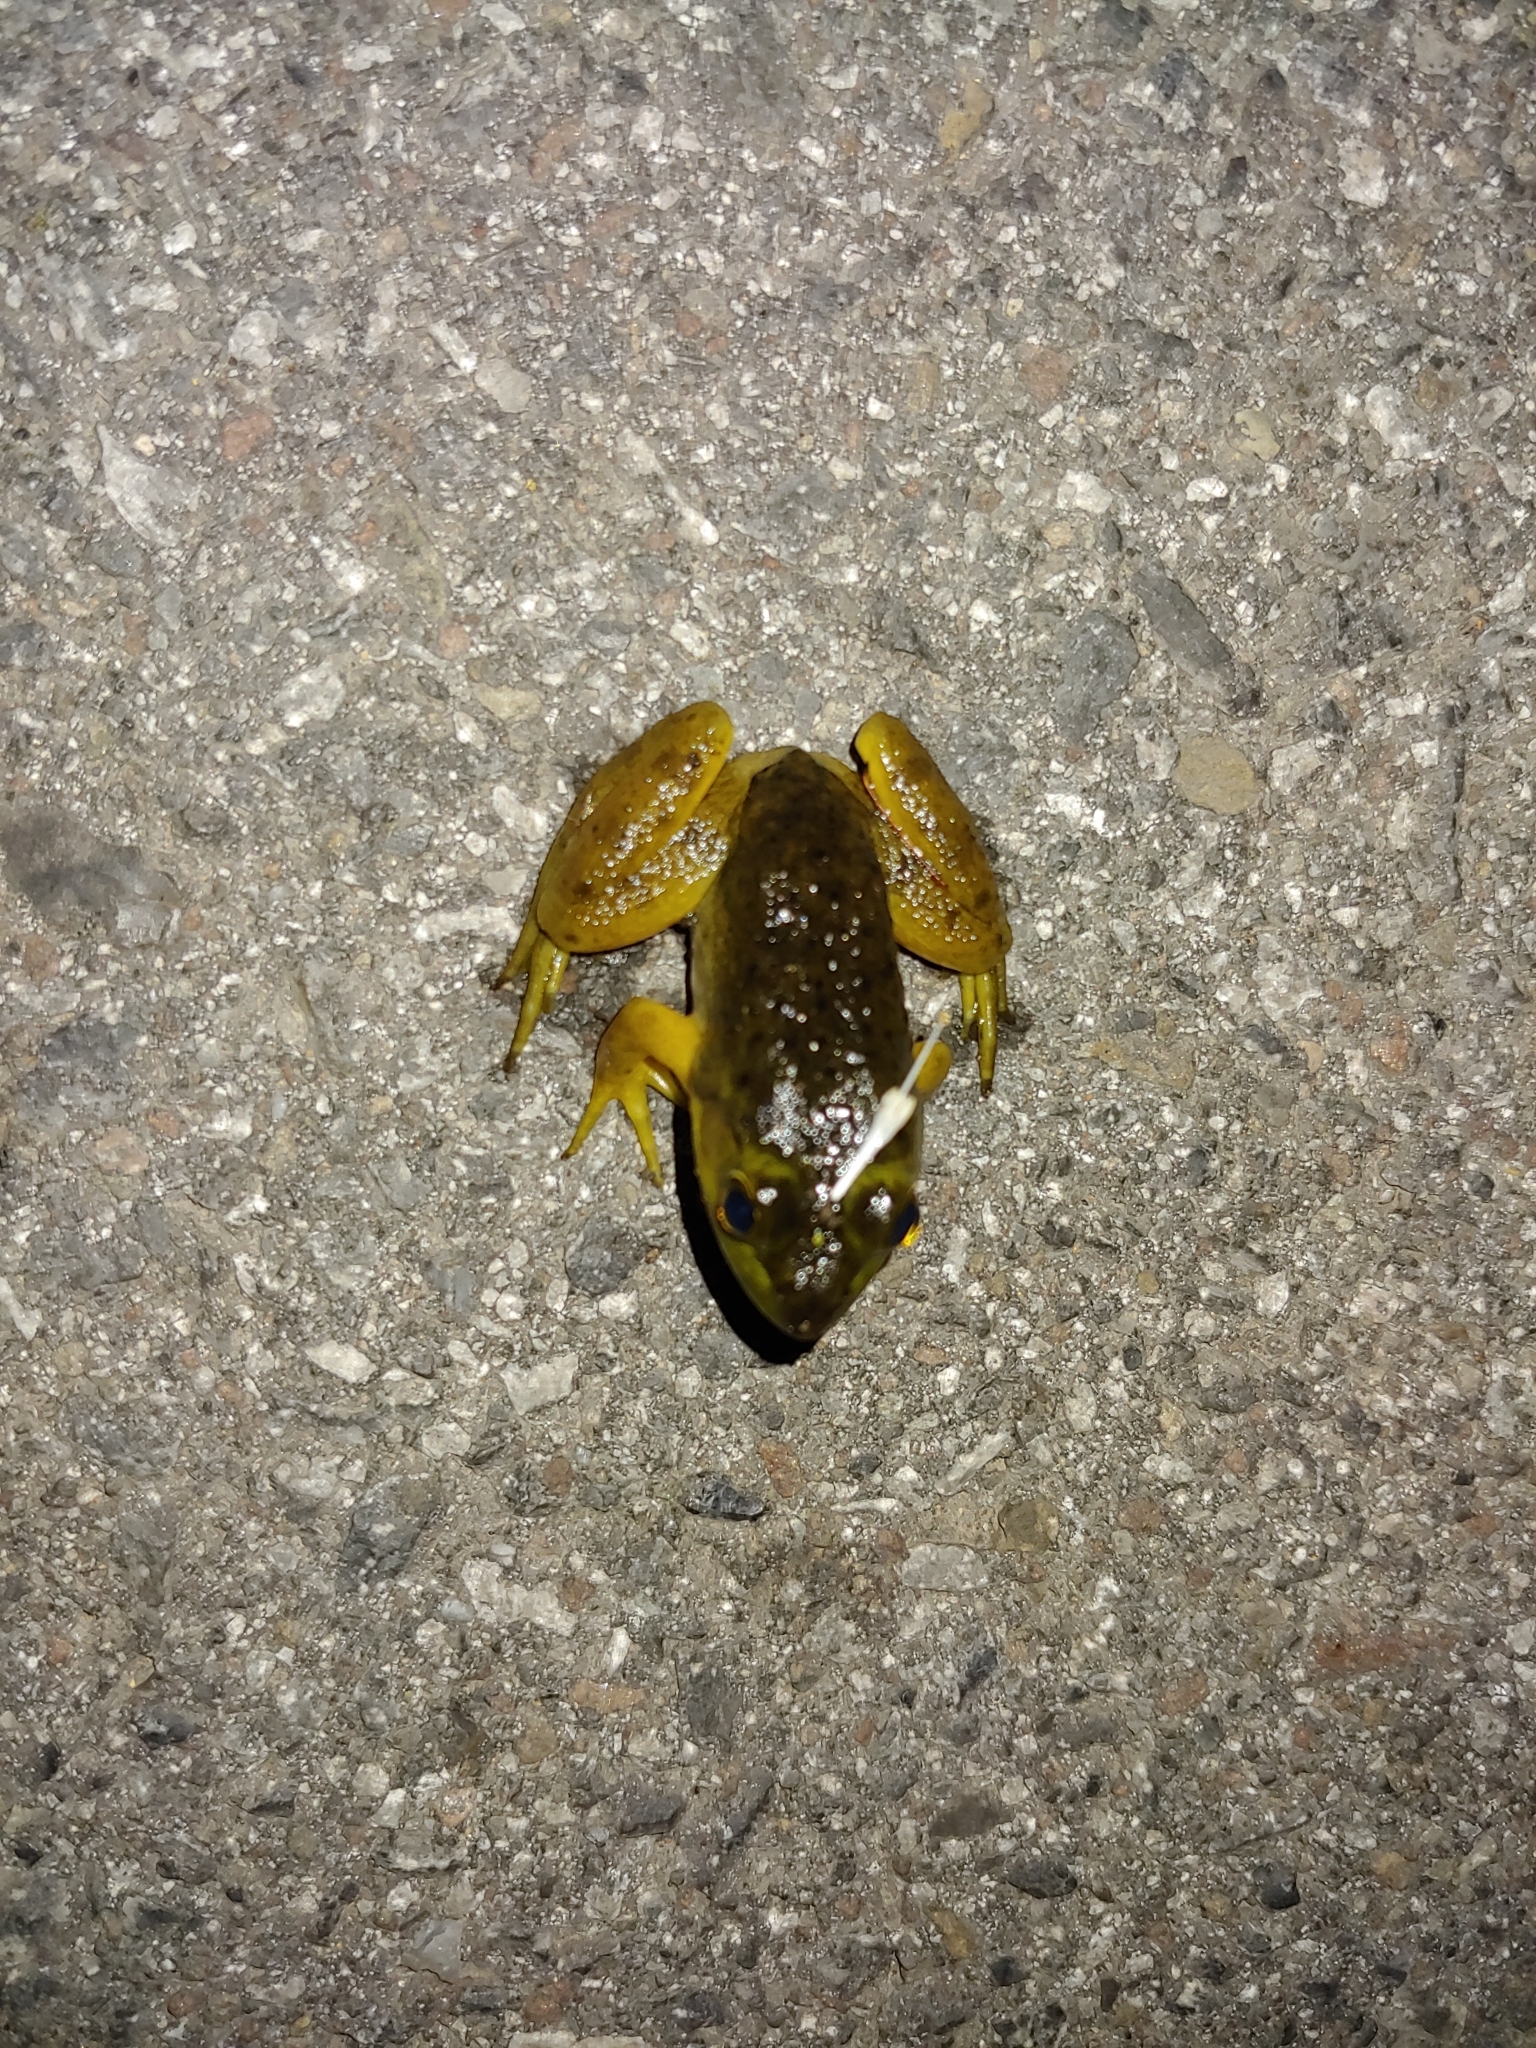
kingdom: Animalia
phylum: Chordata
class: Amphibia
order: Anura
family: Ranidae
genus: Lithobates
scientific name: Lithobates catesbeianus
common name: American bullfrog
